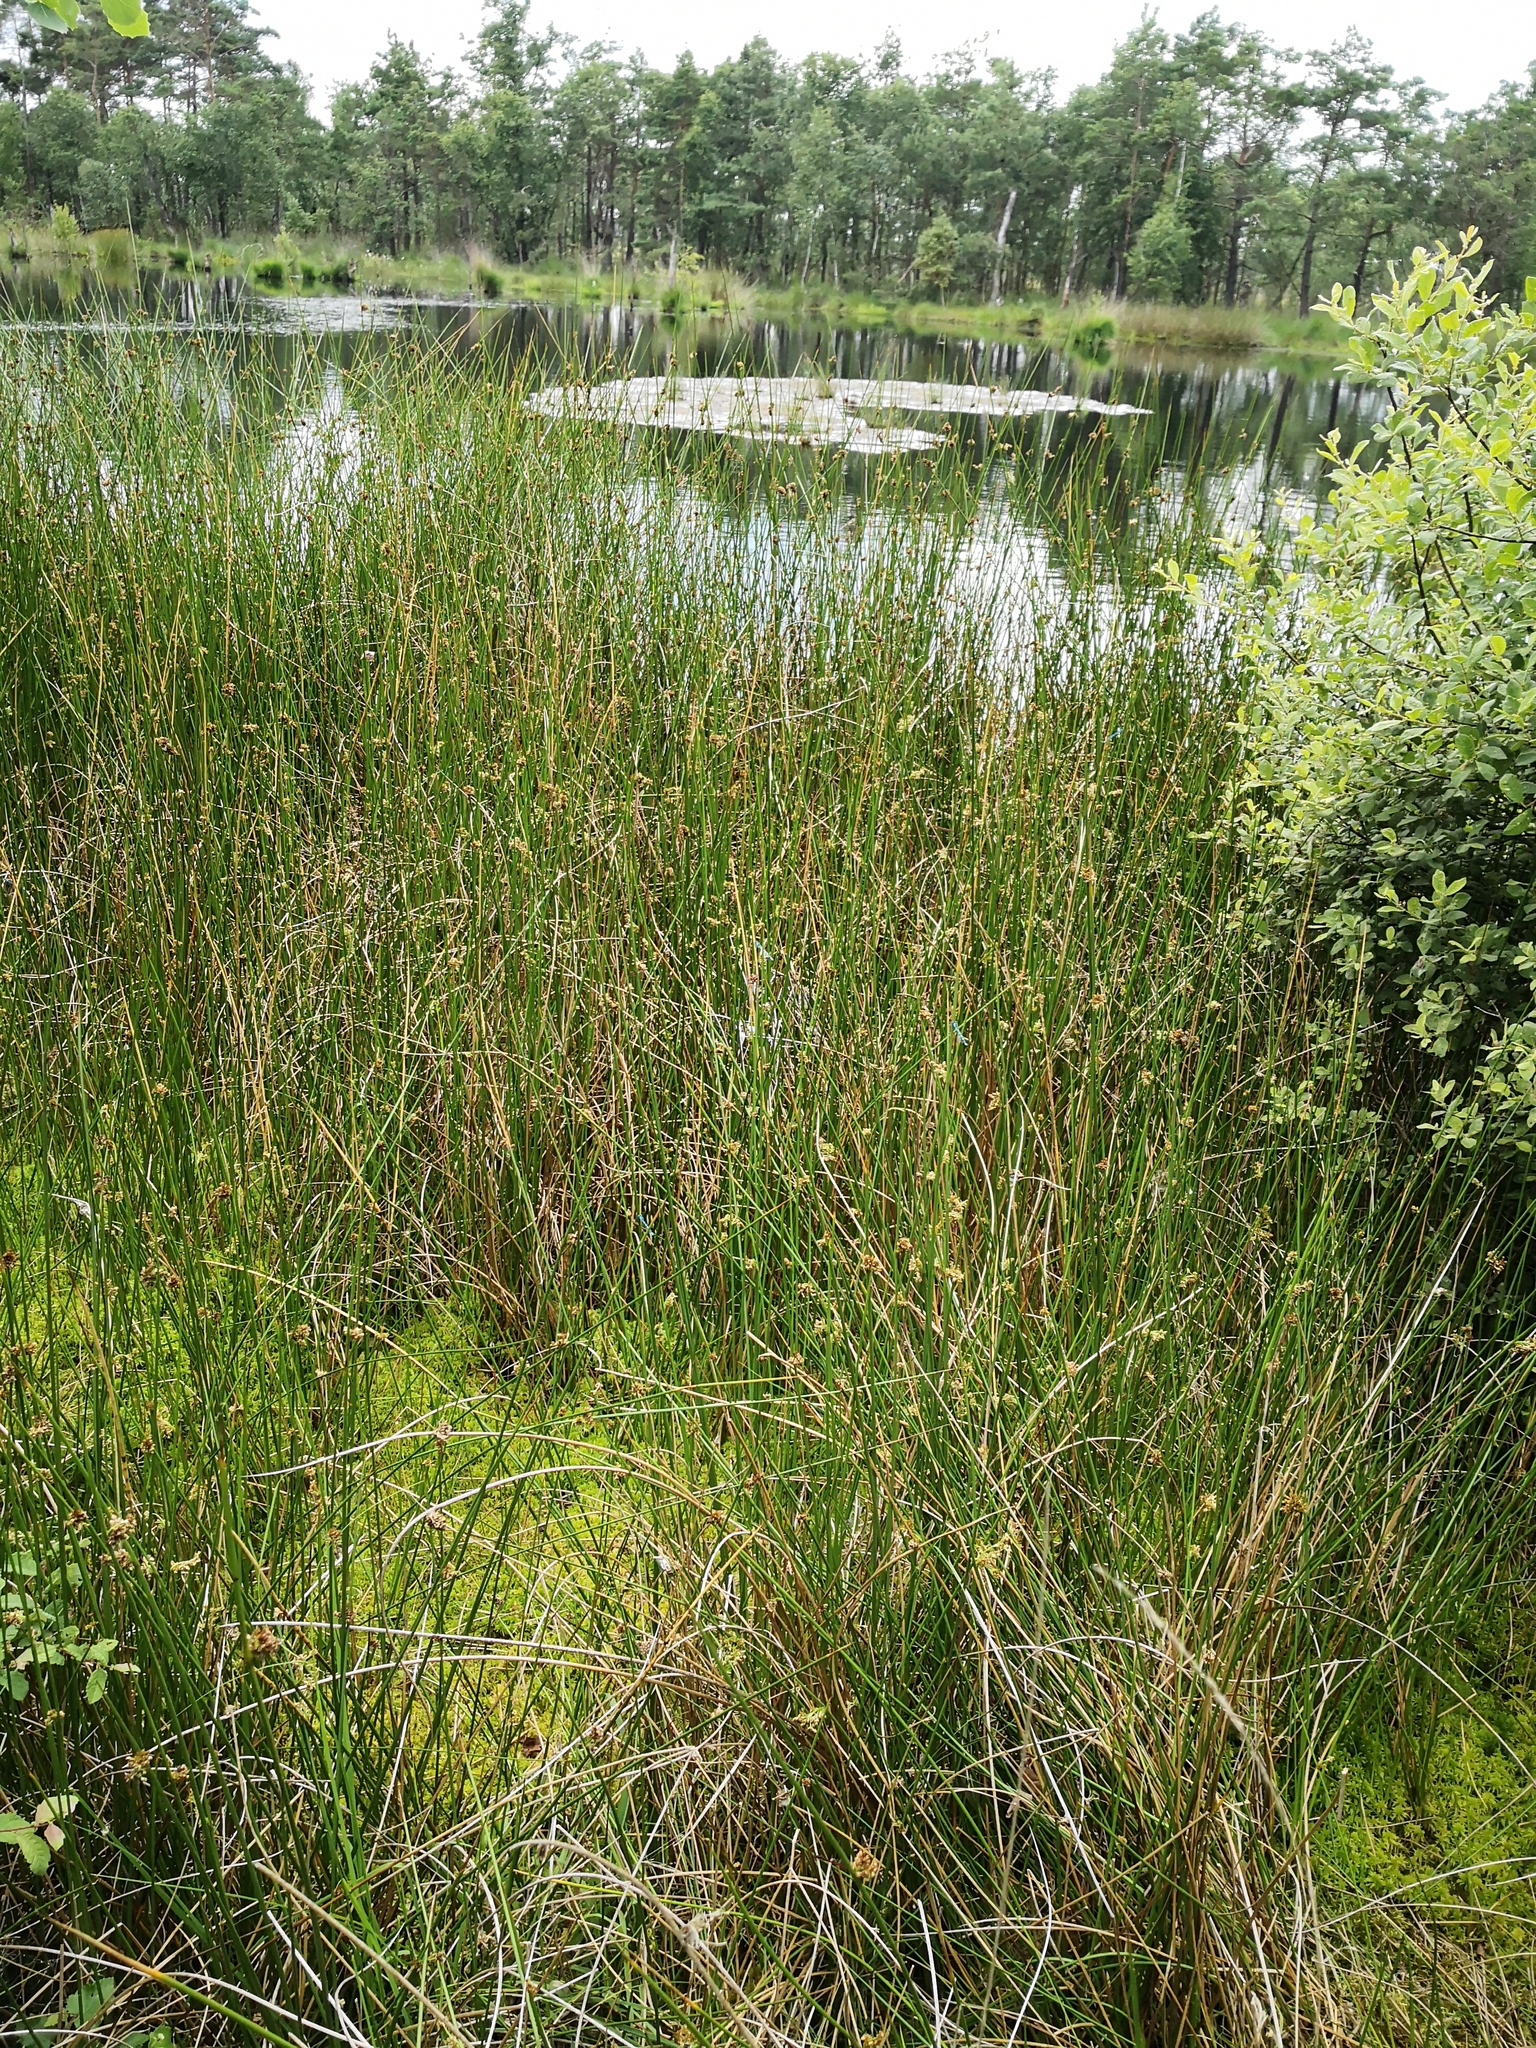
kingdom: Plantae
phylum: Tracheophyta
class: Liliopsida
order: Poales
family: Juncaceae
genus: Juncus
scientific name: Juncus effusus
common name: Soft rush
